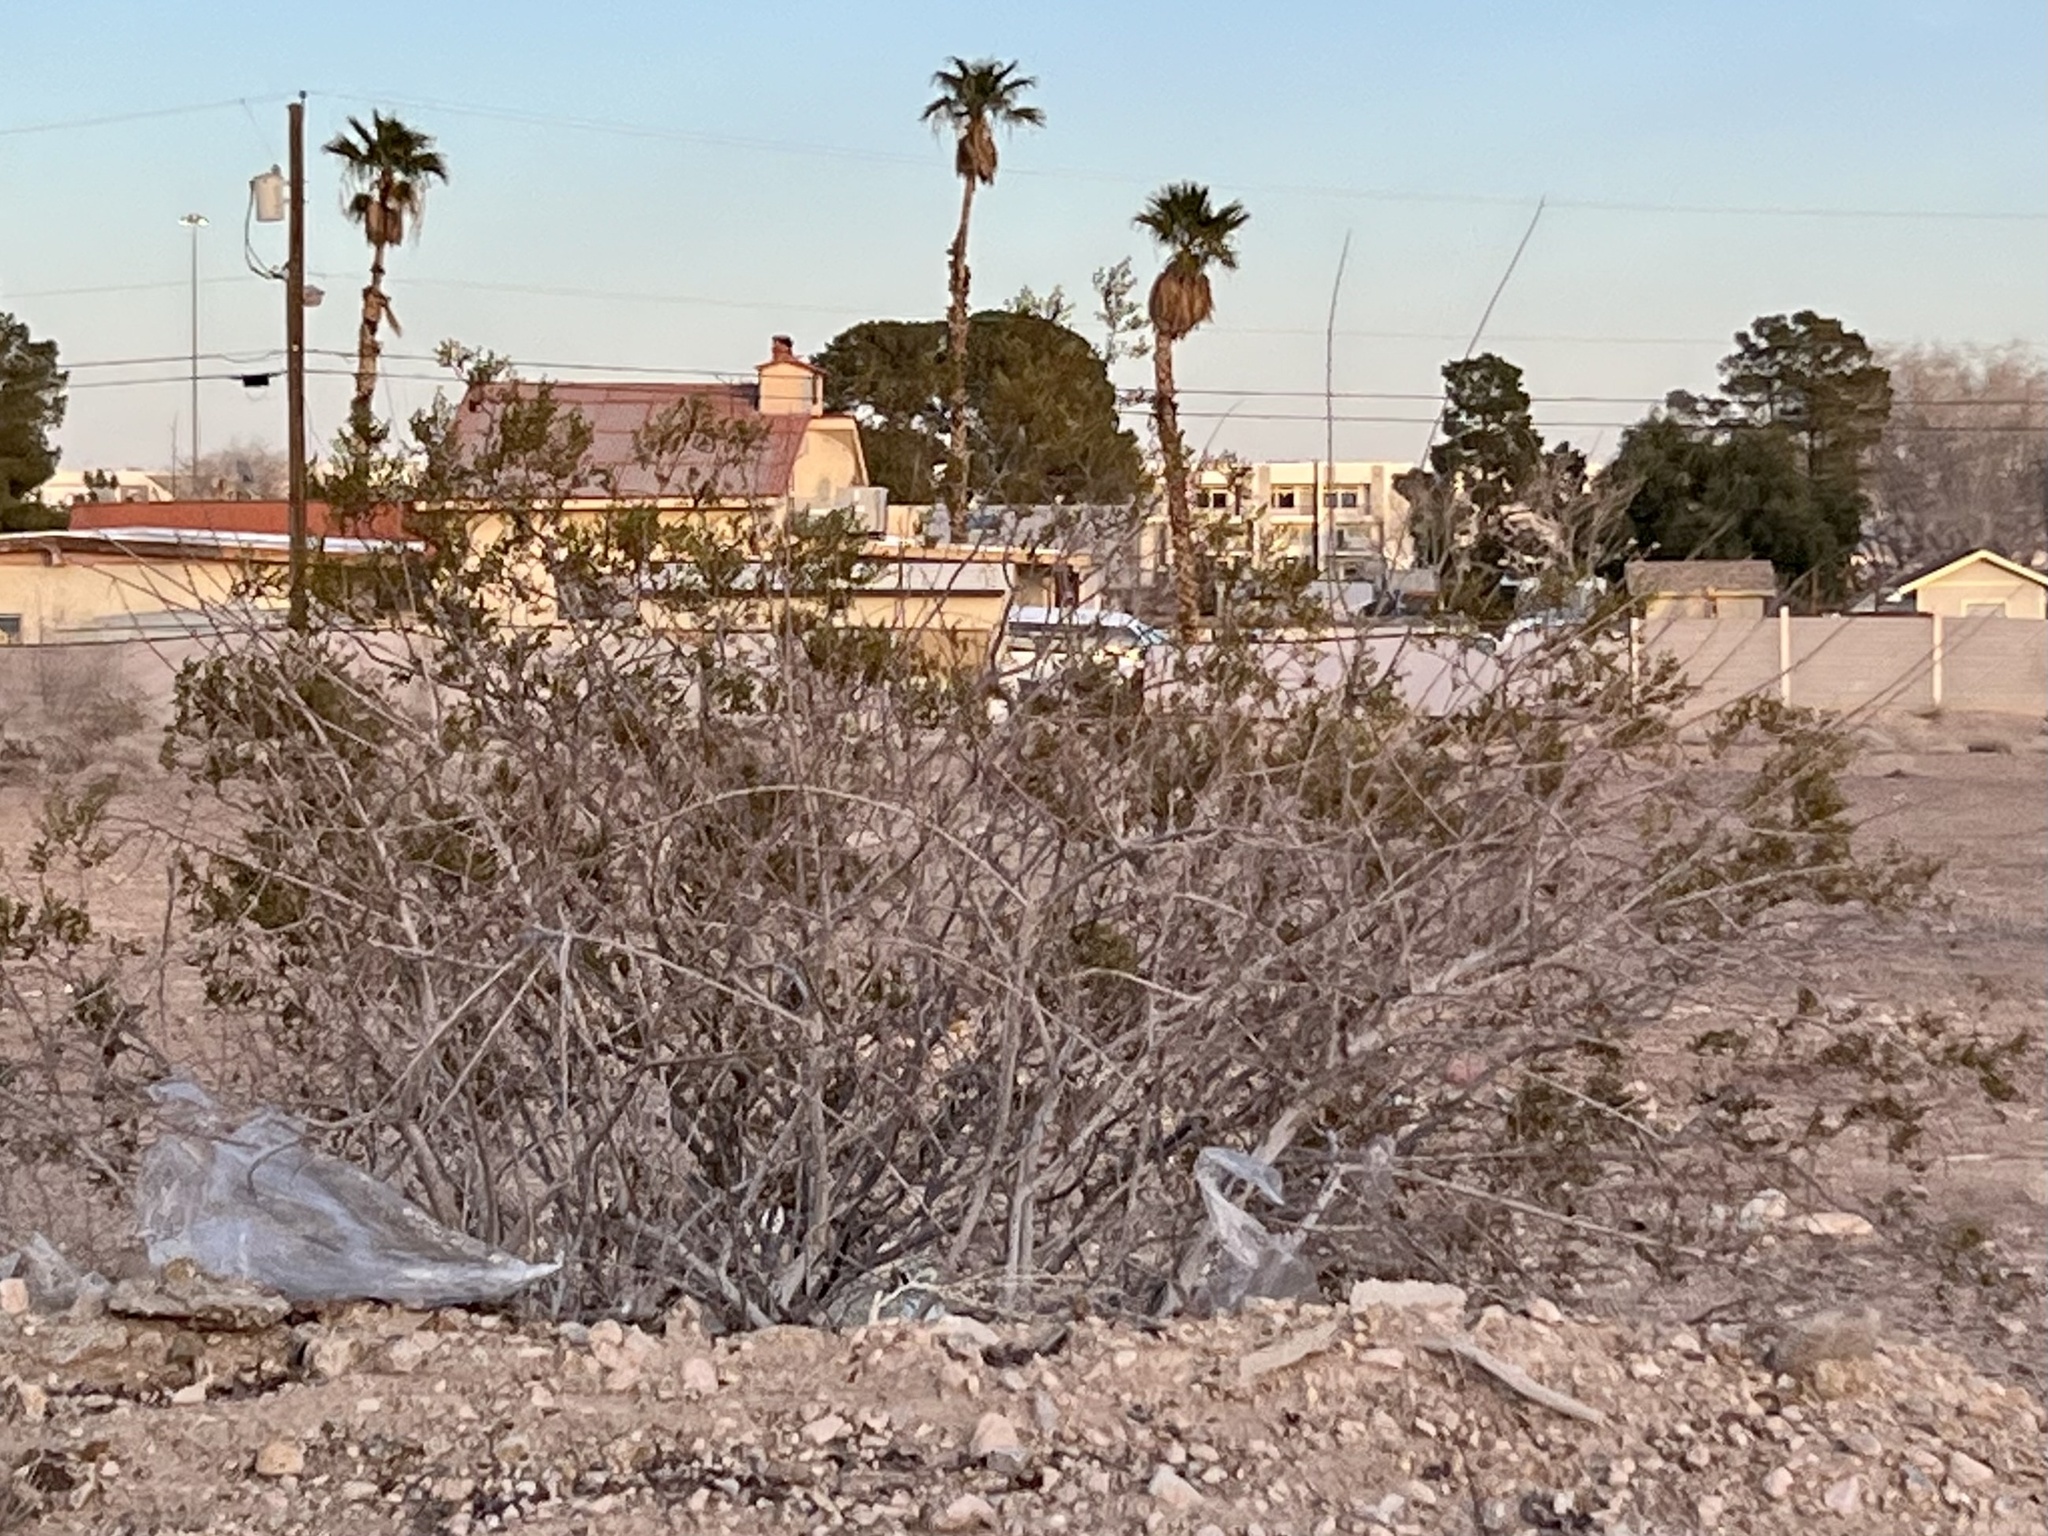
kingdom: Plantae
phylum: Tracheophyta
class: Magnoliopsida
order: Zygophyllales
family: Zygophyllaceae
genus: Larrea
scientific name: Larrea tridentata
